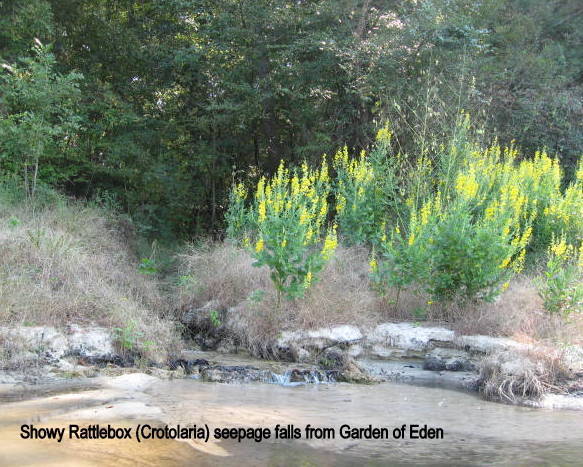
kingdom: Plantae
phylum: Tracheophyta
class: Magnoliopsida
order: Fabales
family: Fabaceae
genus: Crotalaria
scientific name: Crotalaria spectabilis
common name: Showy rattlebox
